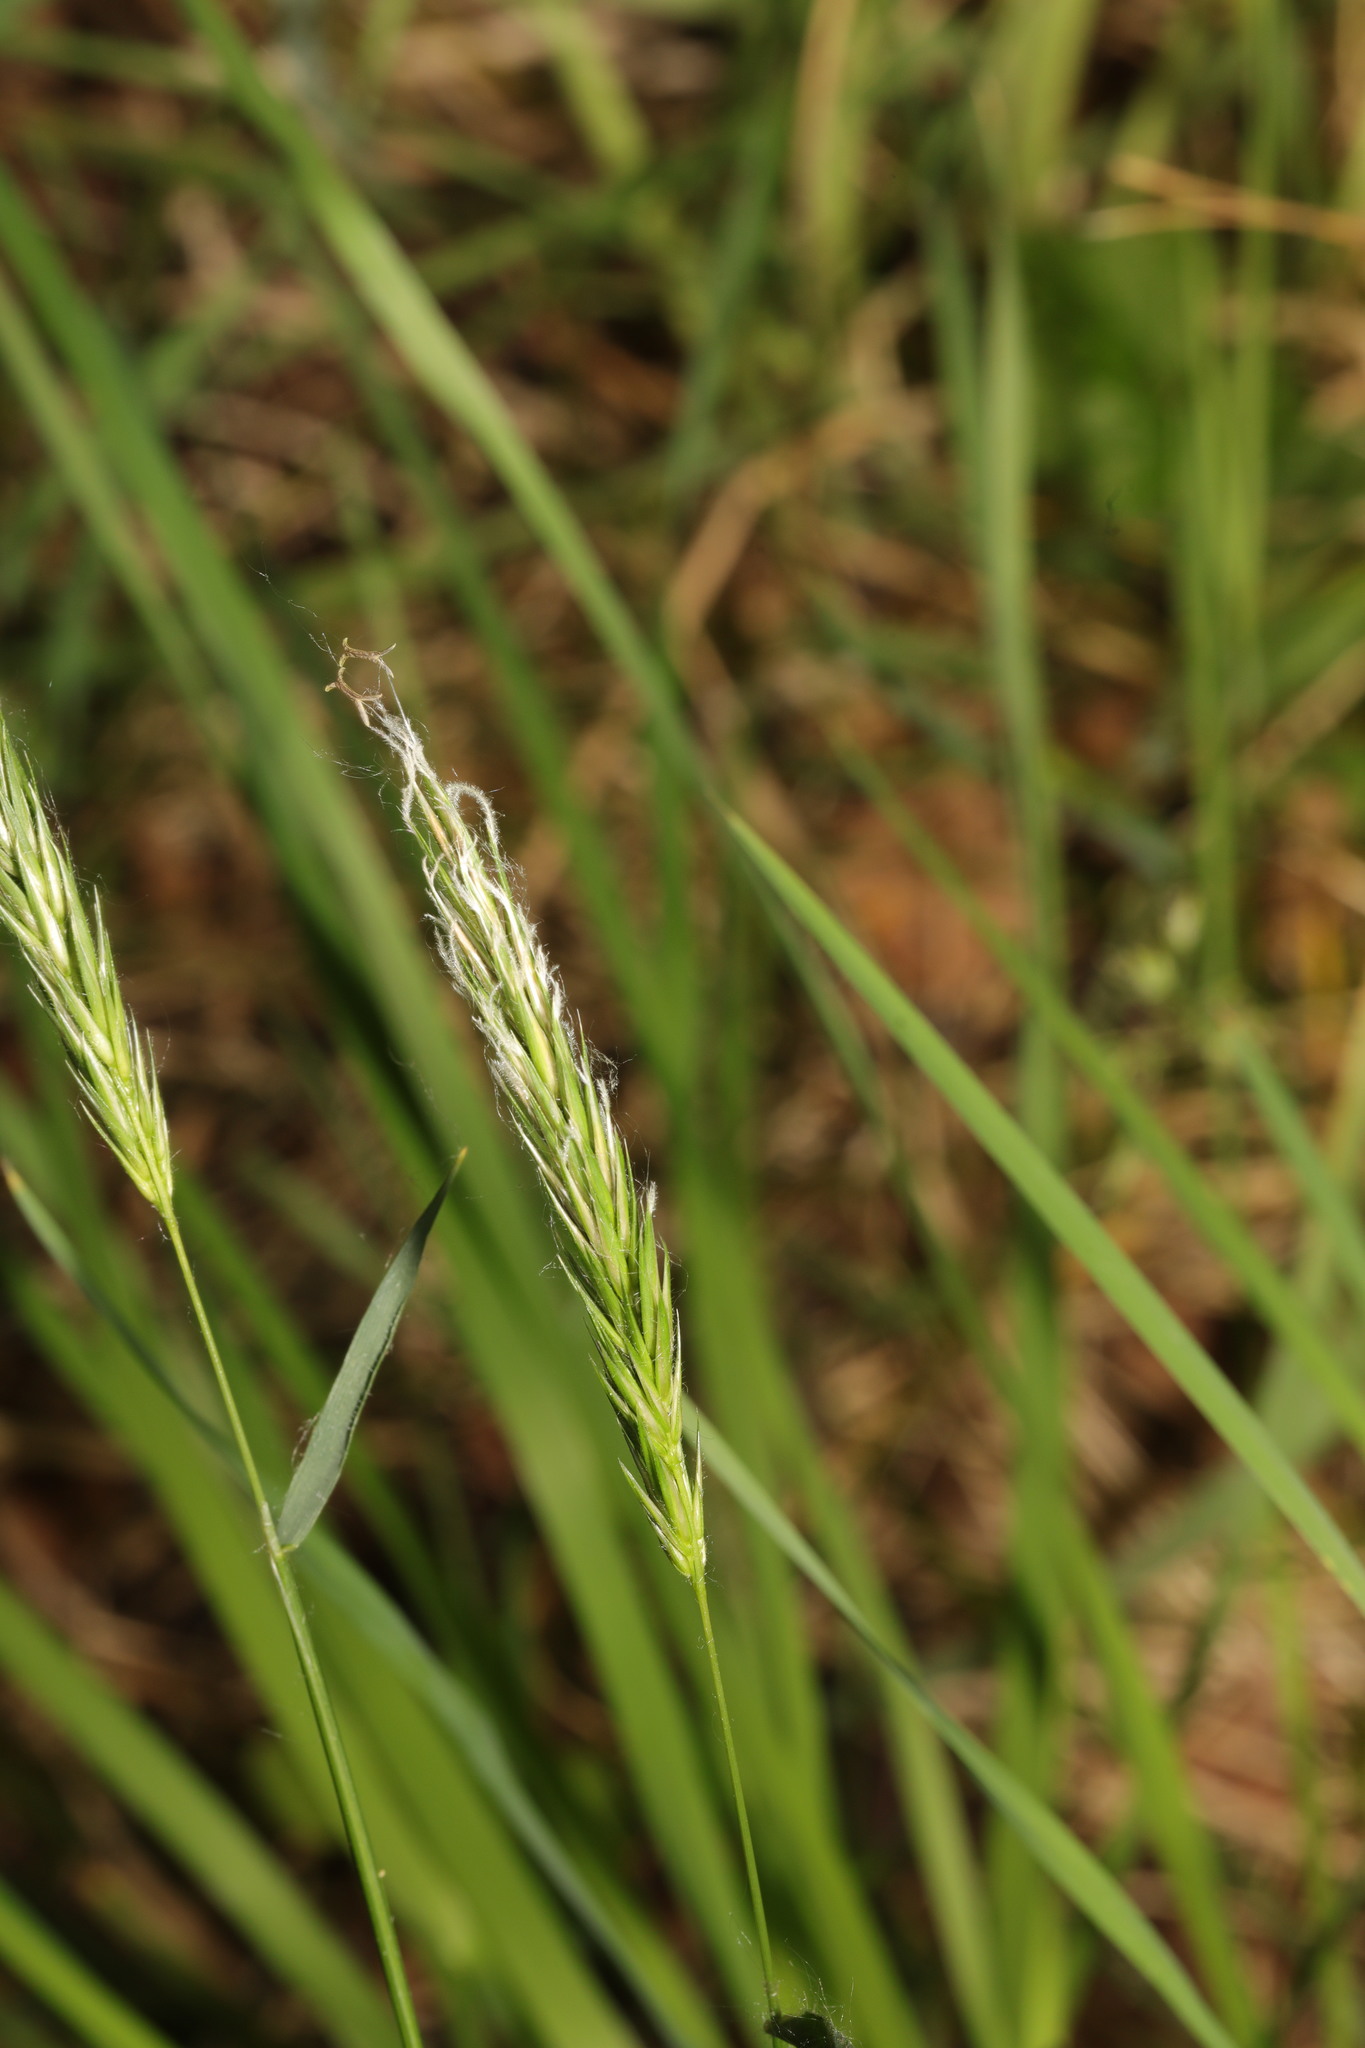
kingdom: Plantae
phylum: Tracheophyta
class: Liliopsida
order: Poales
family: Poaceae
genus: Anthoxanthum
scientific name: Anthoxanthum odoratum
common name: Sweet vernalgrass
